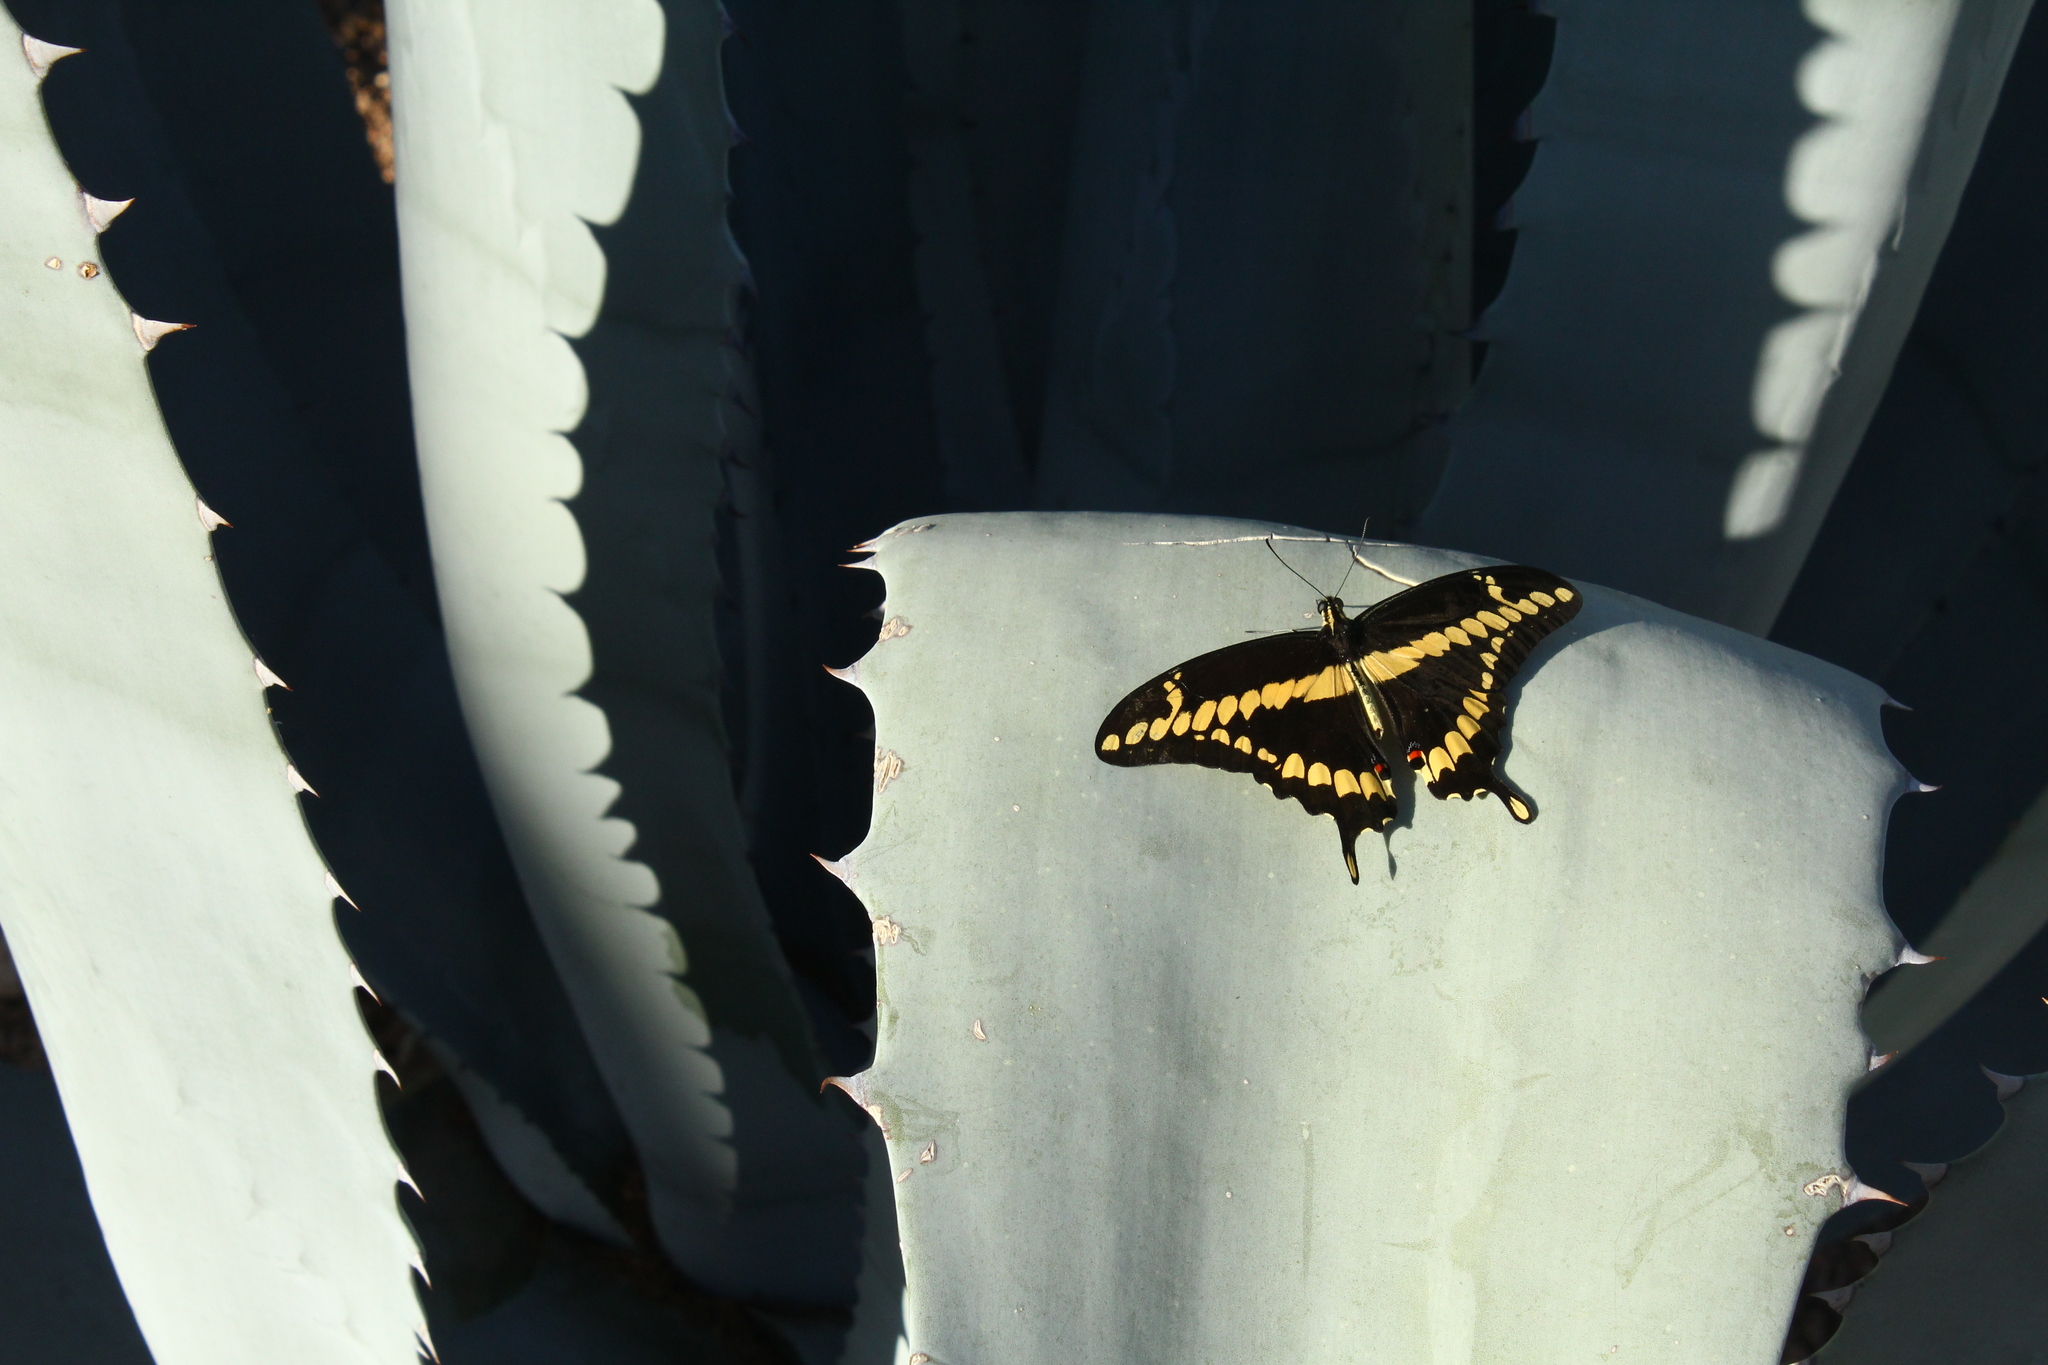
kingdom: Animalia
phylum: Arthropoda
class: Insecta
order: Lepidoptera
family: Papilionidae
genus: Papilio
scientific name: Papilio rumiko
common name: Western giant swallowtail
